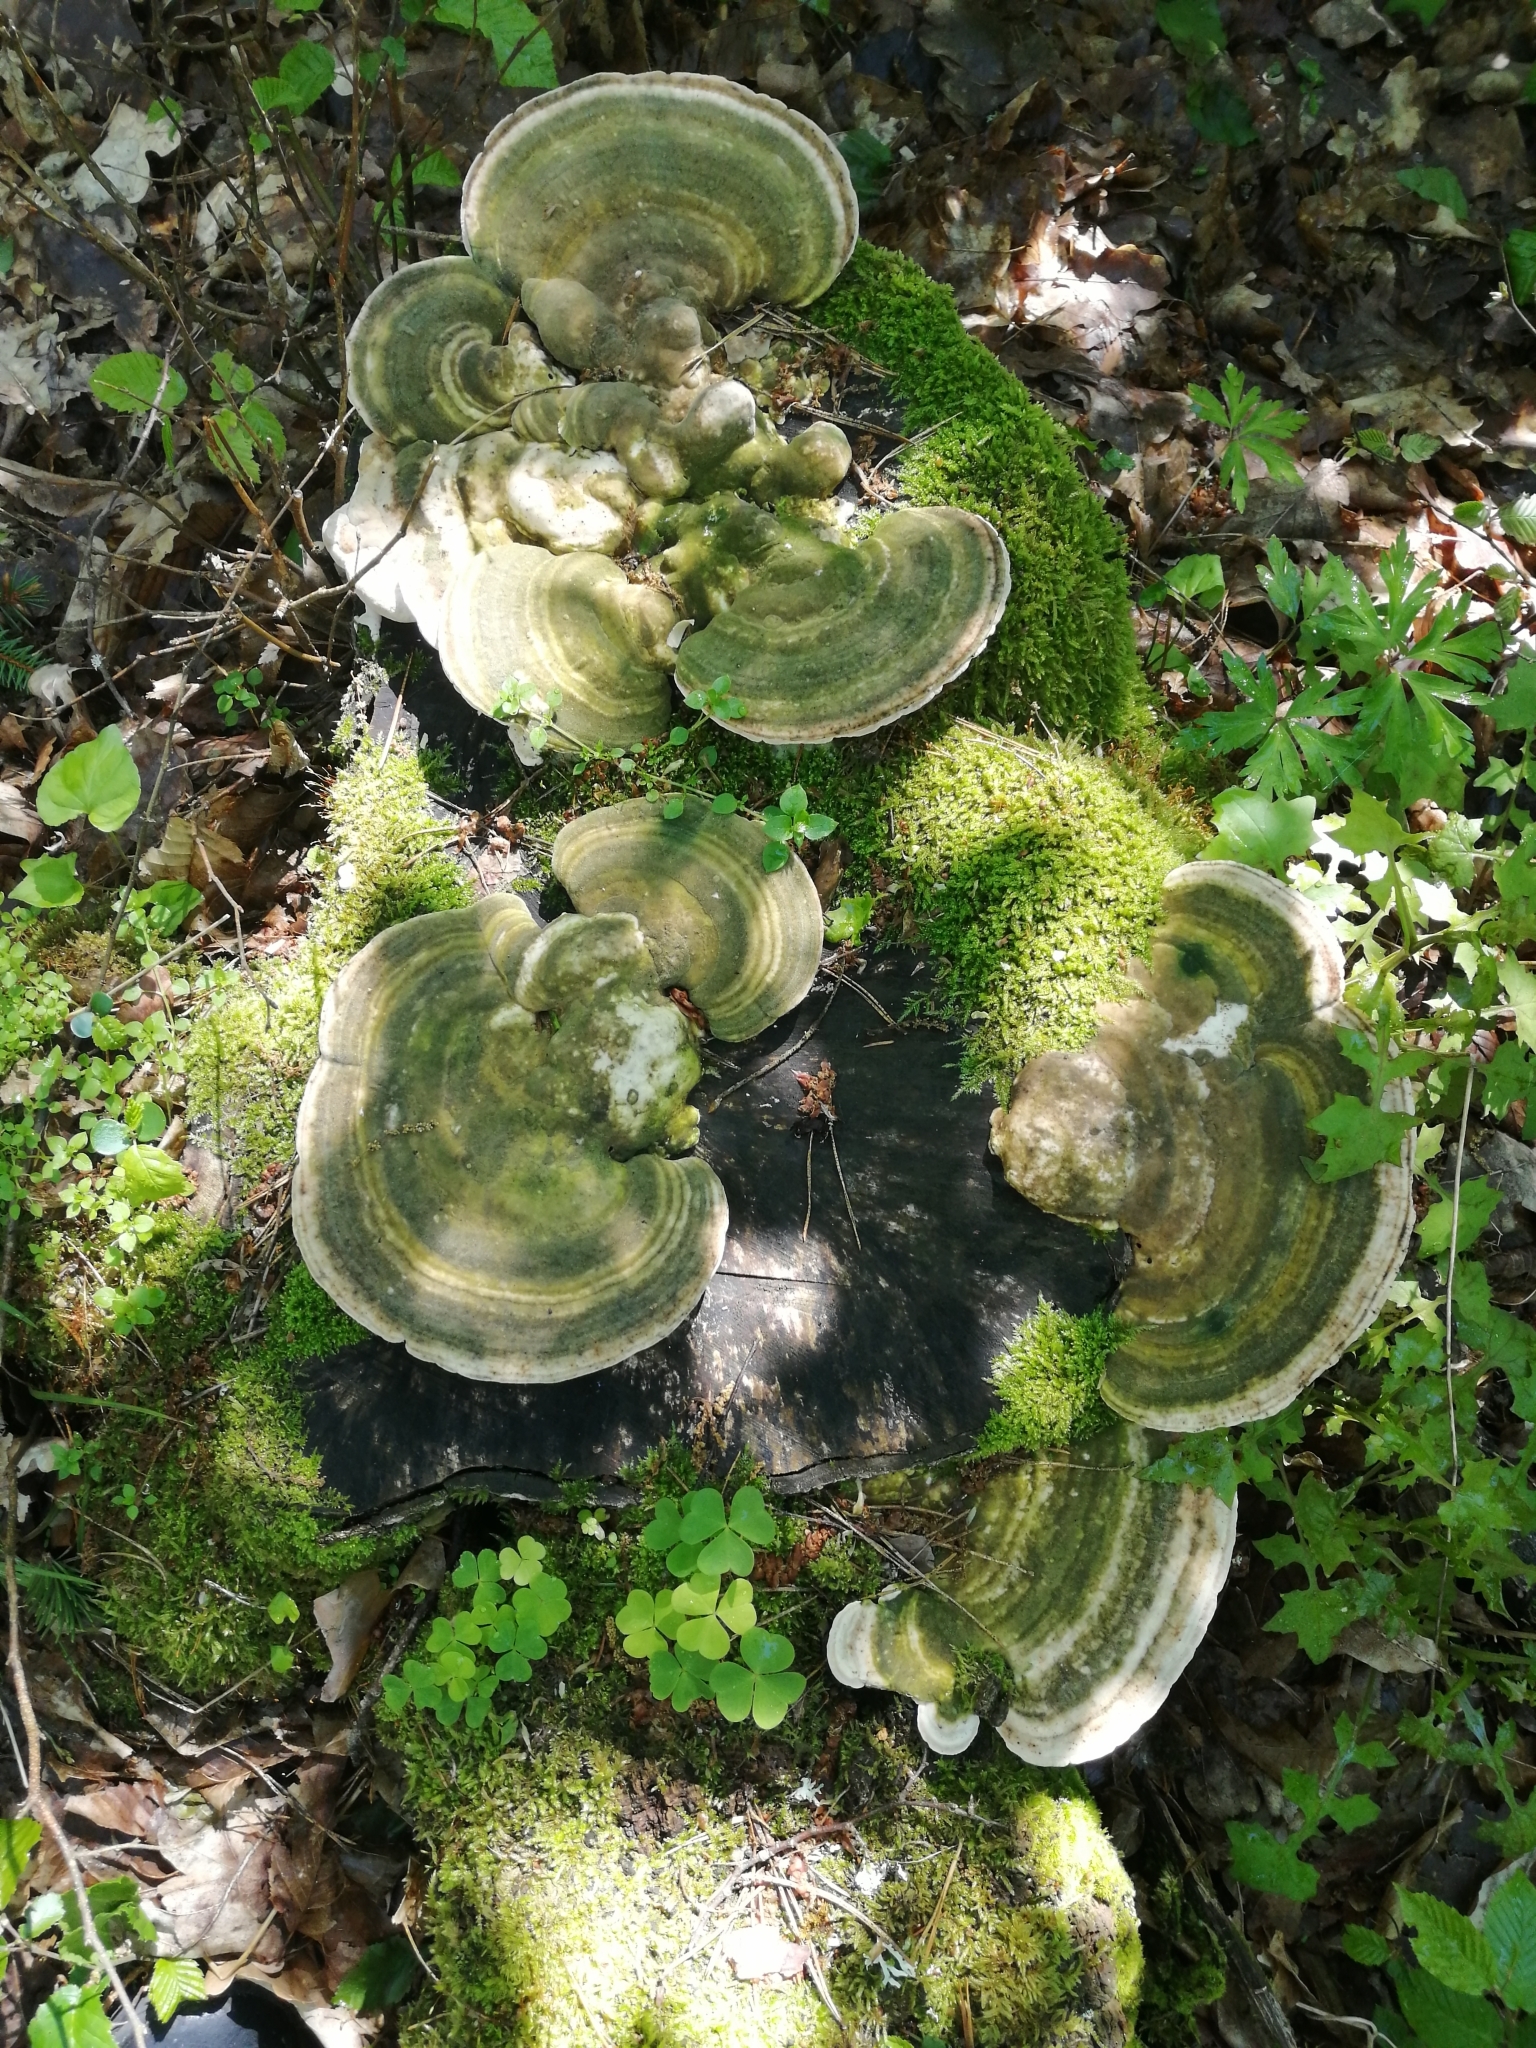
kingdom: Fungi
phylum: Basidiomycota
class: Agaricomycetes
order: Polyporales
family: Polyporaceae
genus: Trametes
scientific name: Trametes gibbosa
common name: Lumpy bracket
